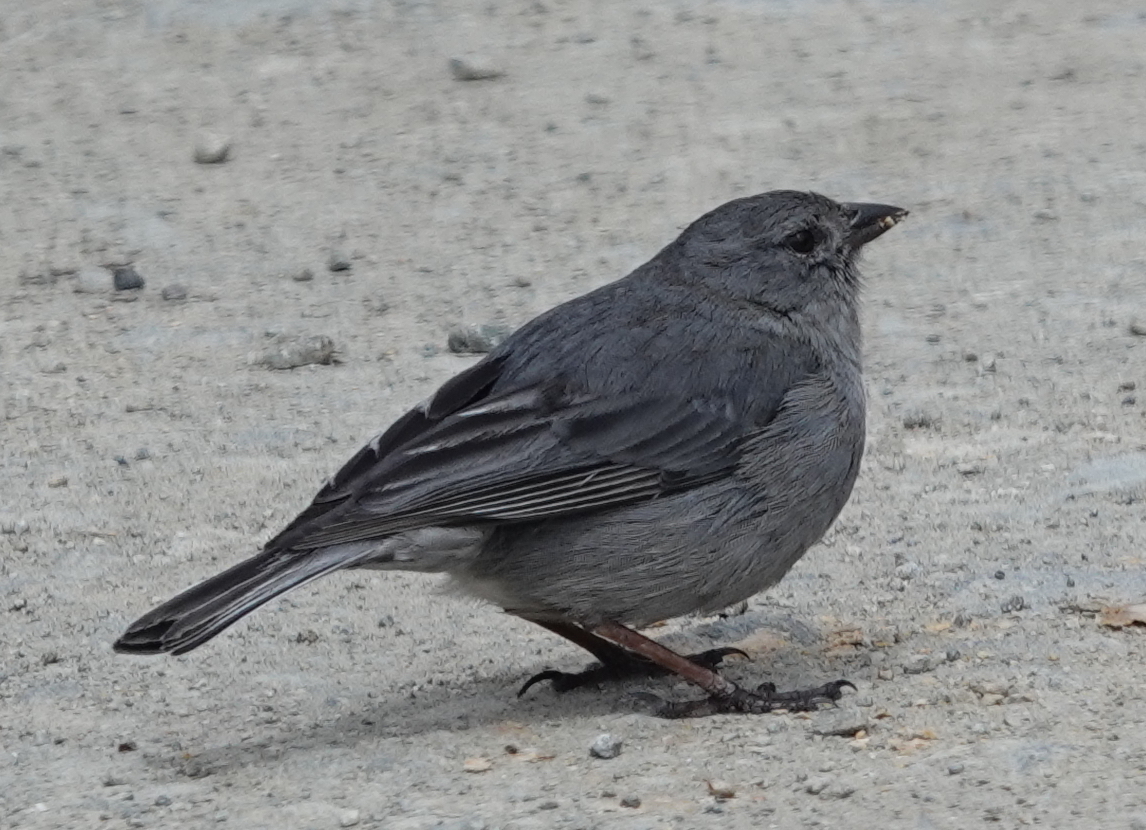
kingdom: Animalia
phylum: Chordata
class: Aves
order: Passeriformes
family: Thraupidae
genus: Geospizopsis
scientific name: Geospizopsis unicolor
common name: Plumbeous sierra-finch
